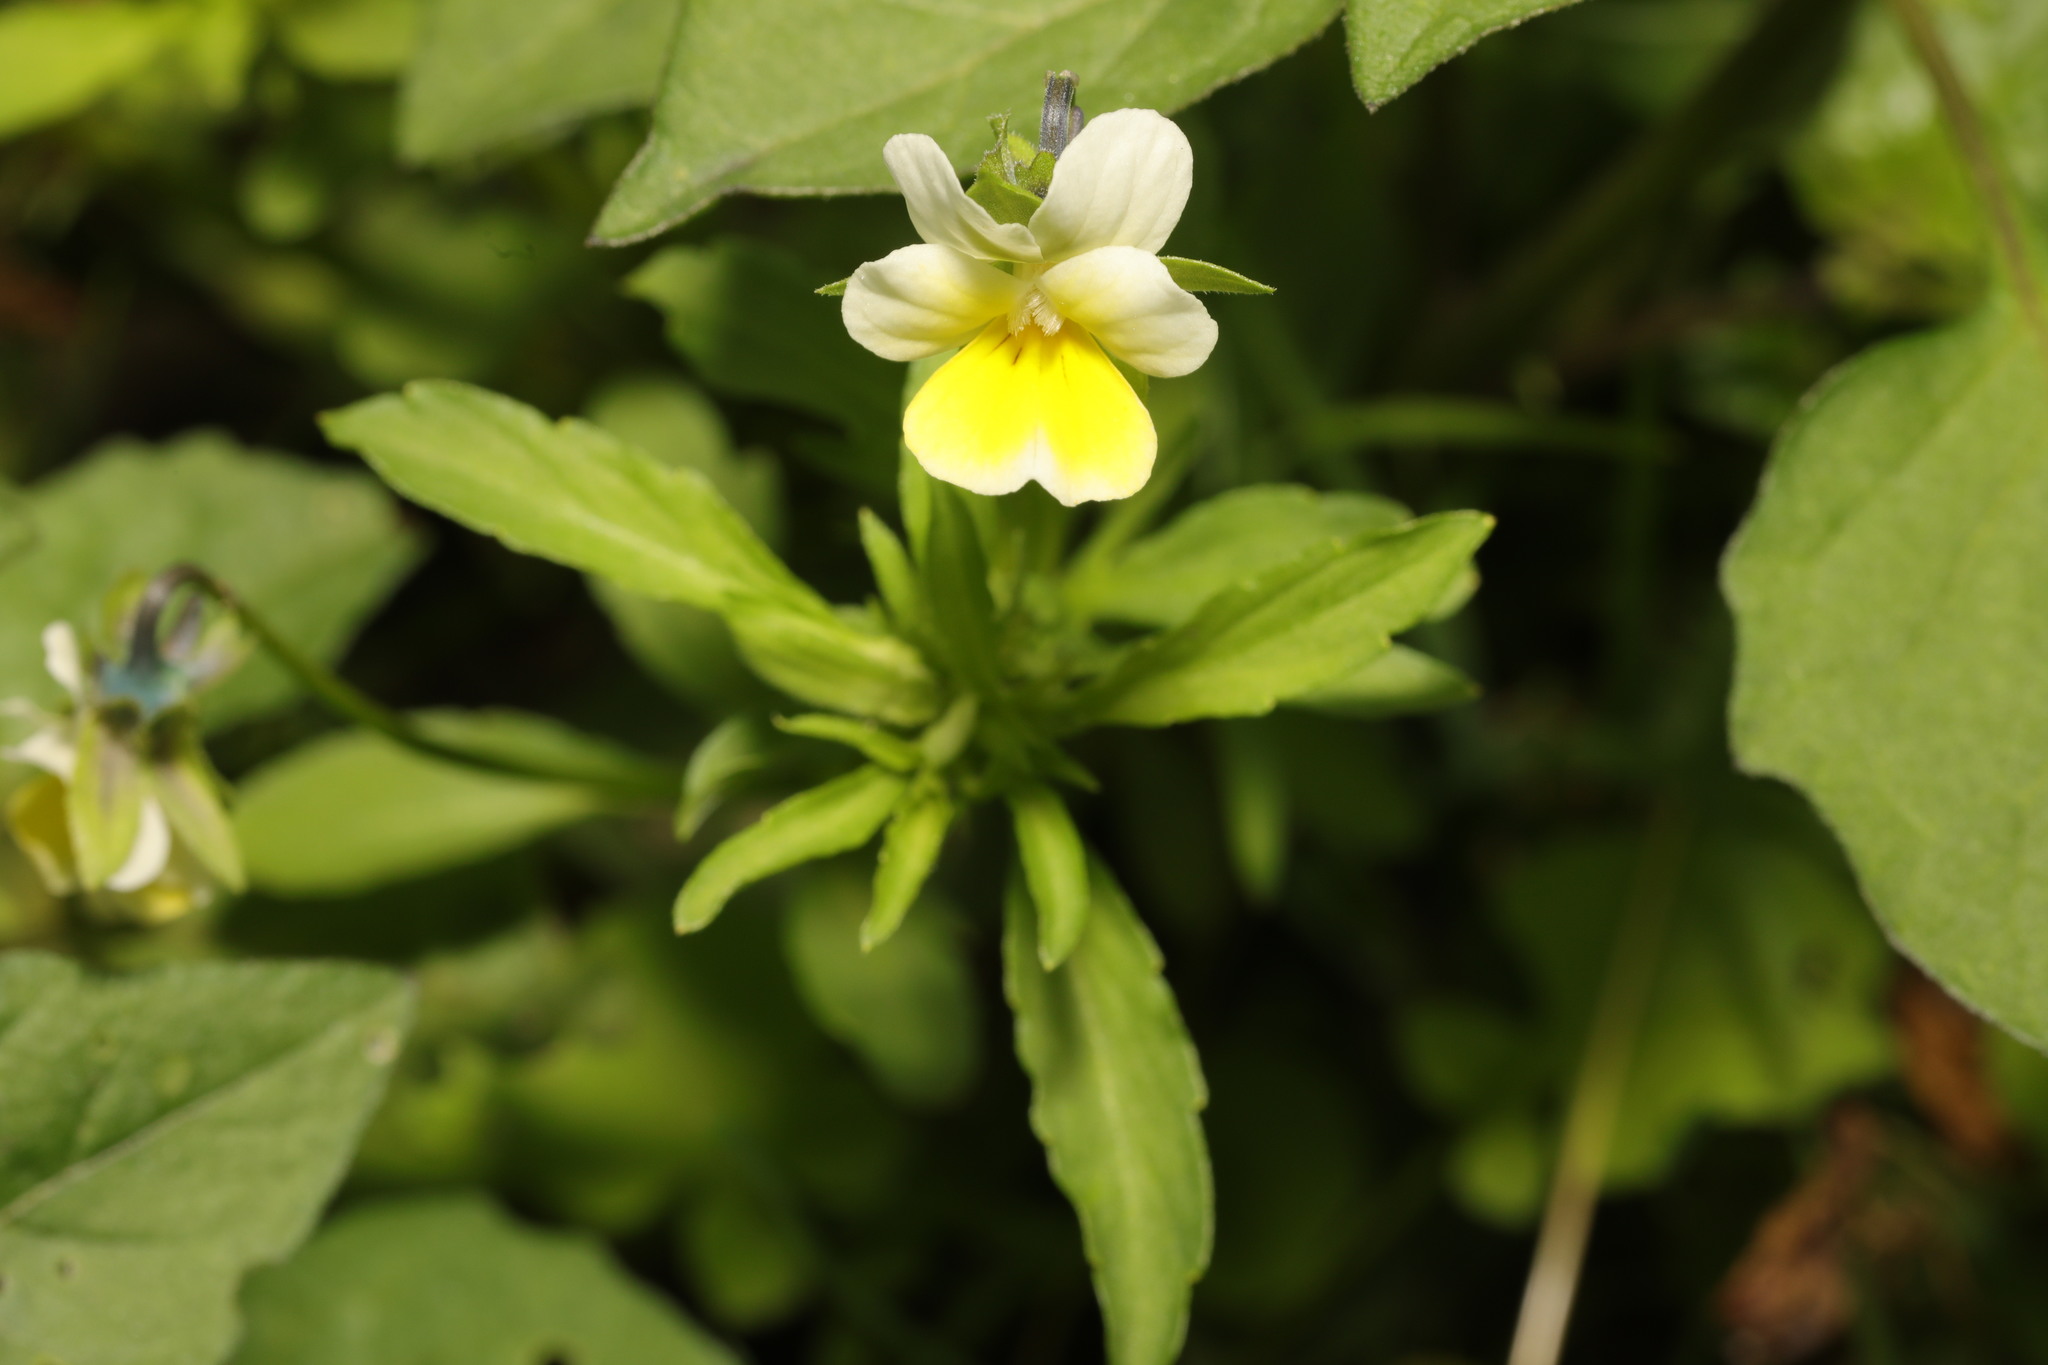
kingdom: Plantae
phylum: Tracheophyta
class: Magnoliopsida
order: Malpighiales
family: Violaceae
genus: Viola
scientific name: Viola arvensis
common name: Field pansy
